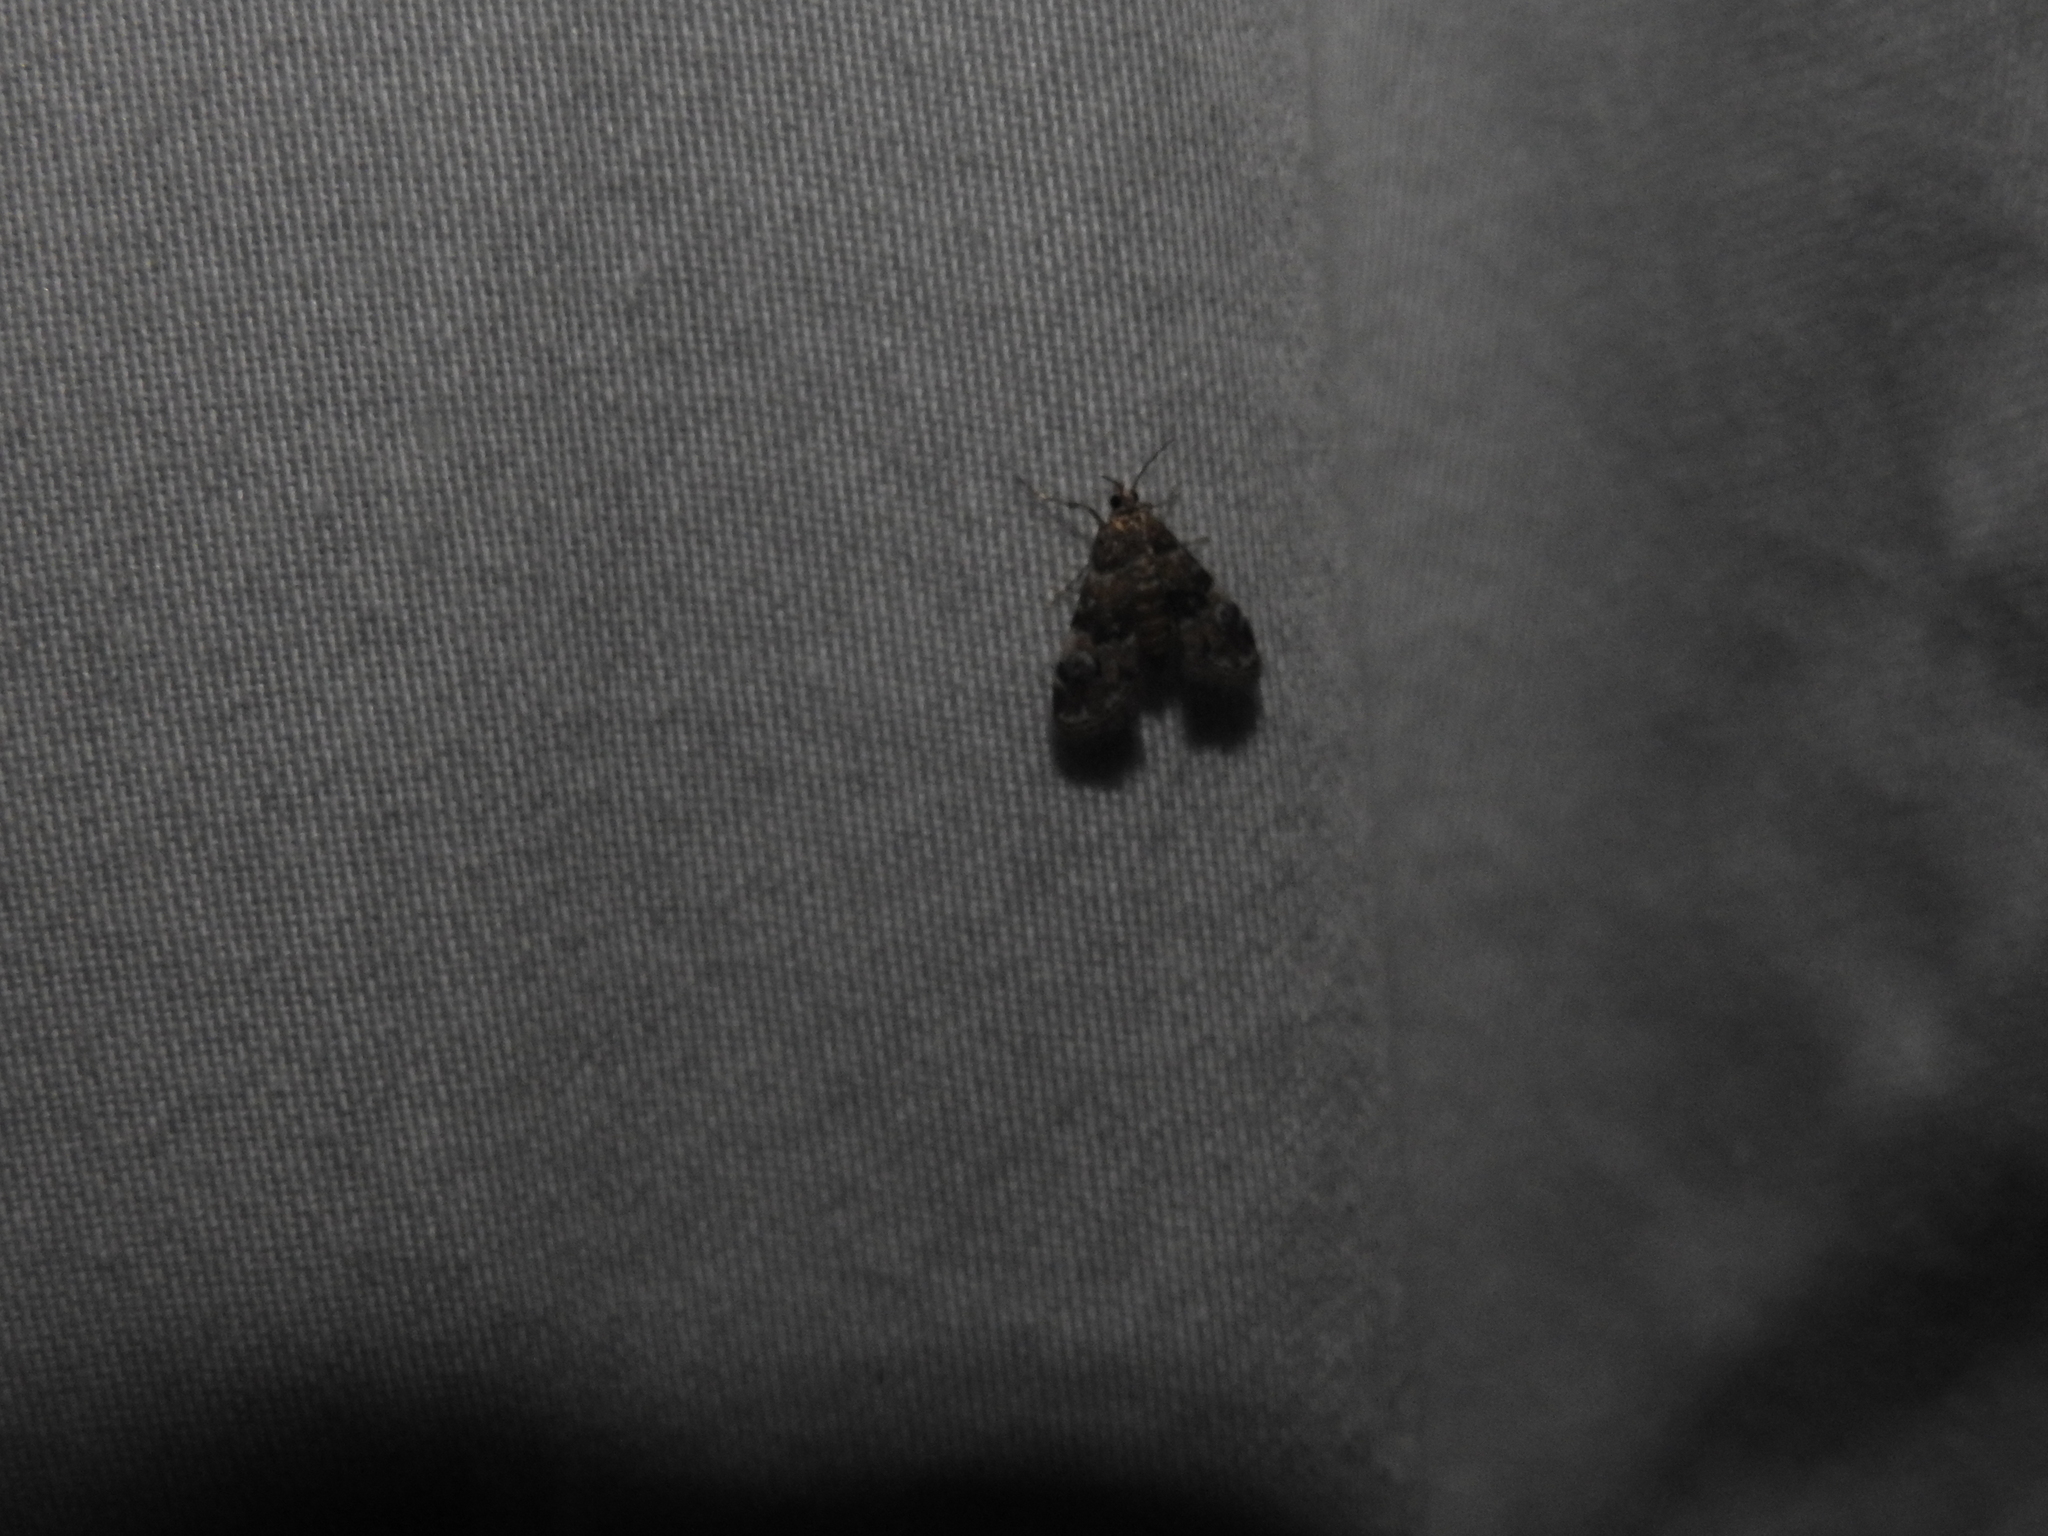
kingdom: Animalia
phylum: Arthropoda
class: Insecta
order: Lepidoptera
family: Crambidae
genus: Elophila
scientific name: Elophila obliteralis
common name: Waterlily leafcutter moth
